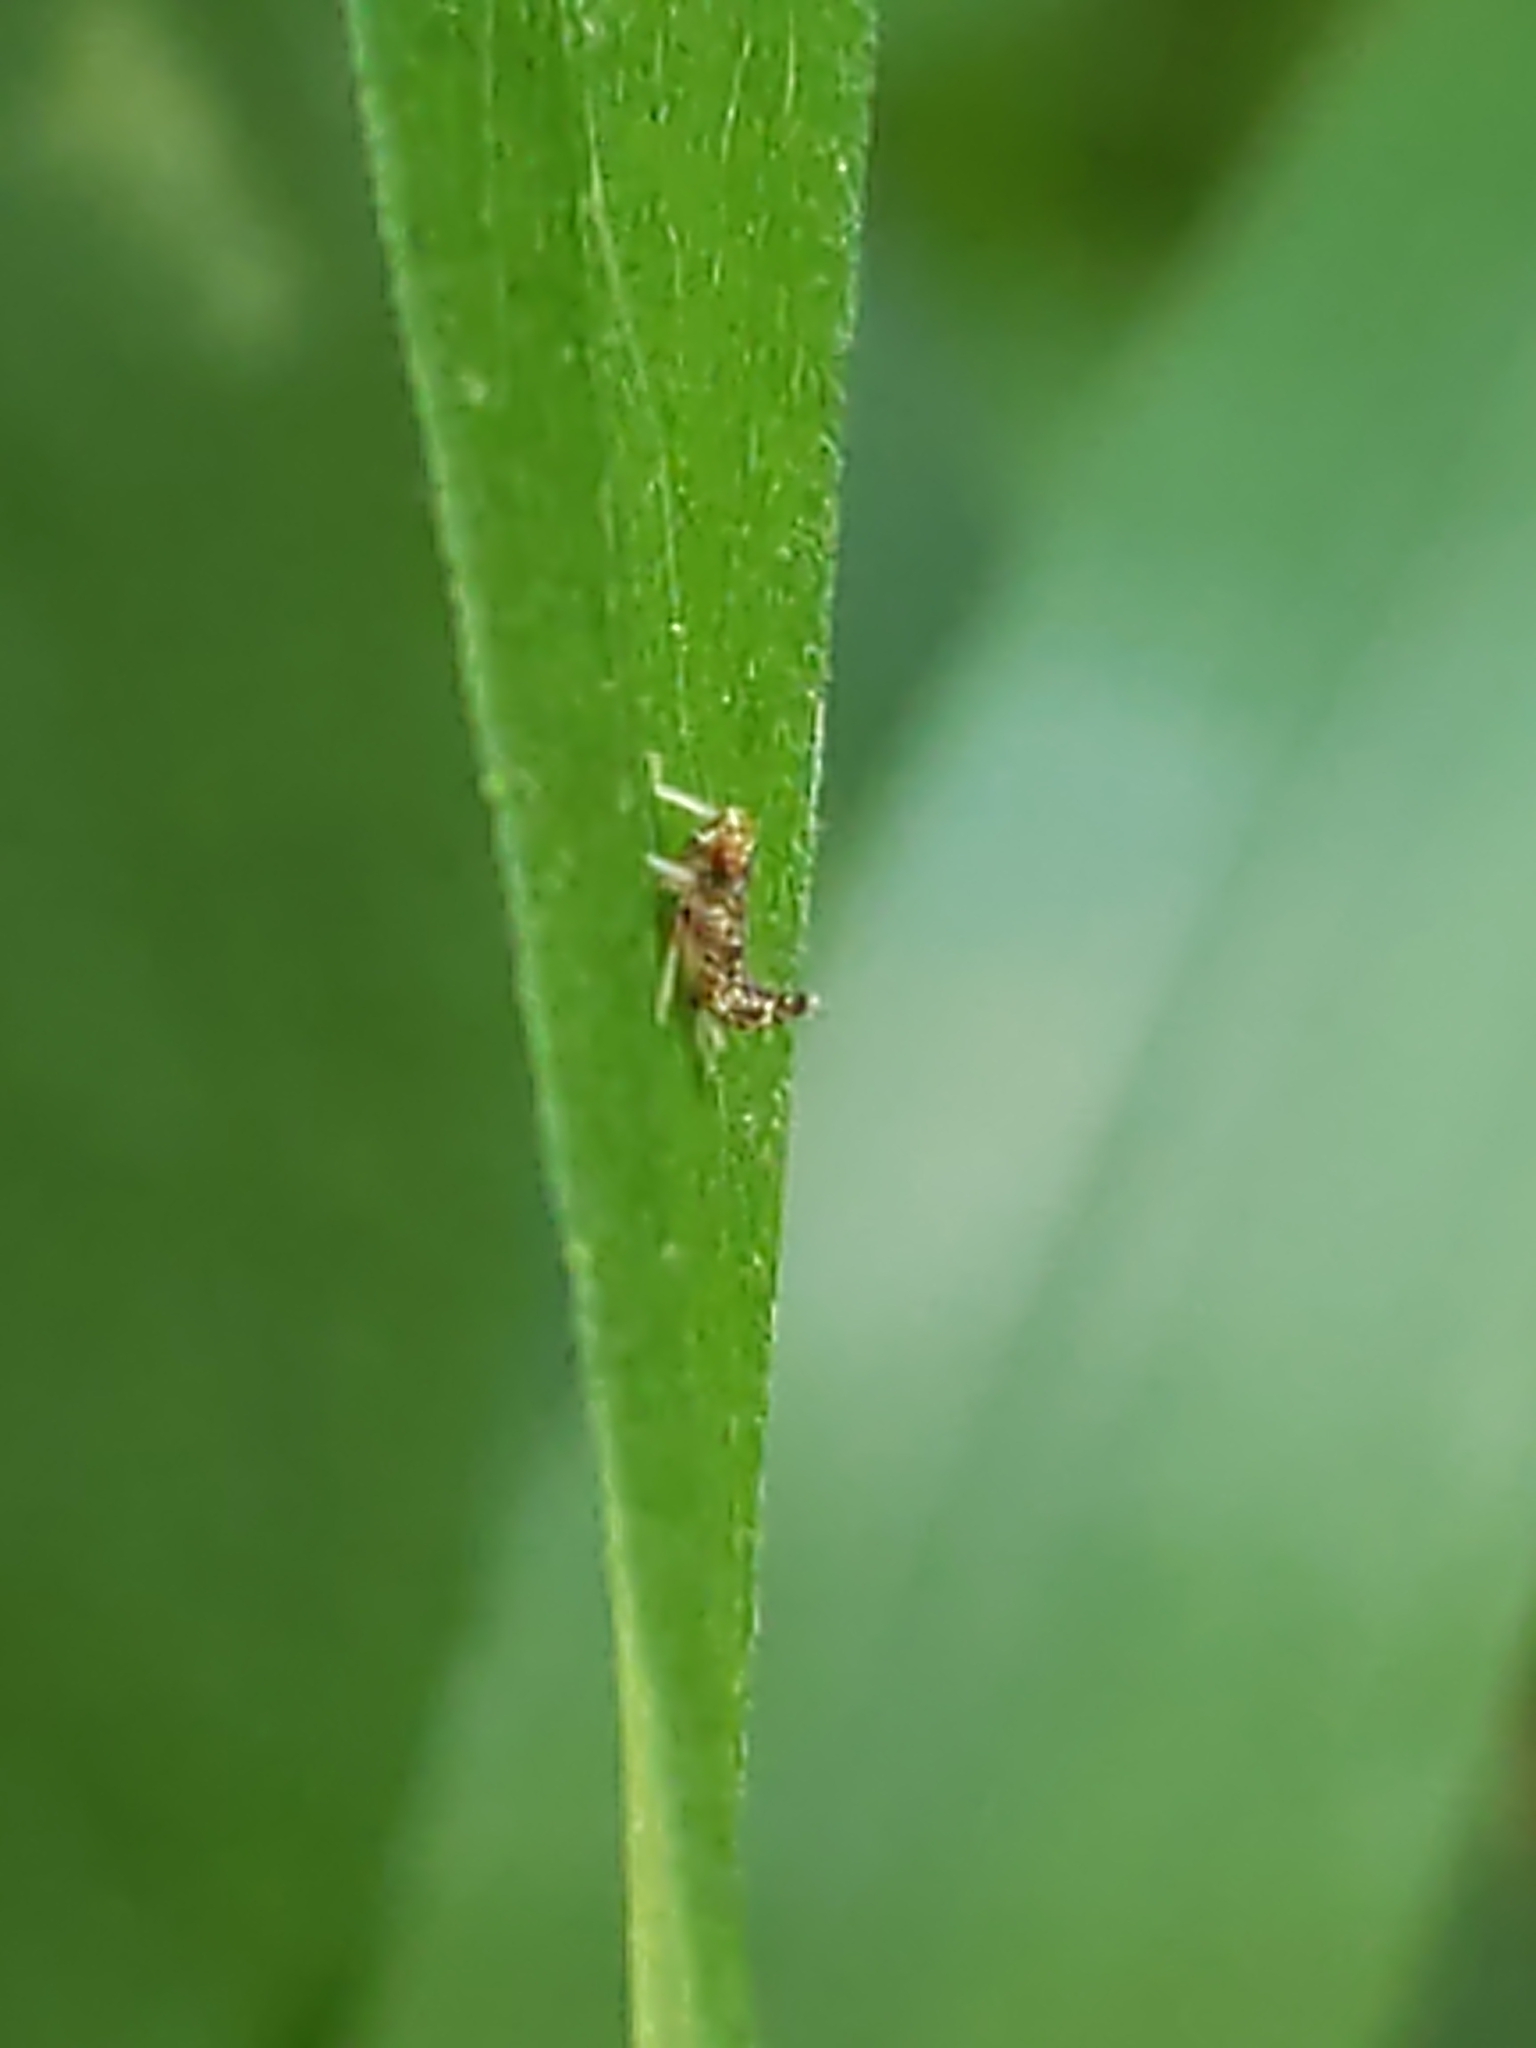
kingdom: Animalia
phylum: Arthropoda
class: Insecta
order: Hemiptera
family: Cicadellidae
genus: Orientus
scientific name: Orientus ishidae
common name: Japanese leafhopper
